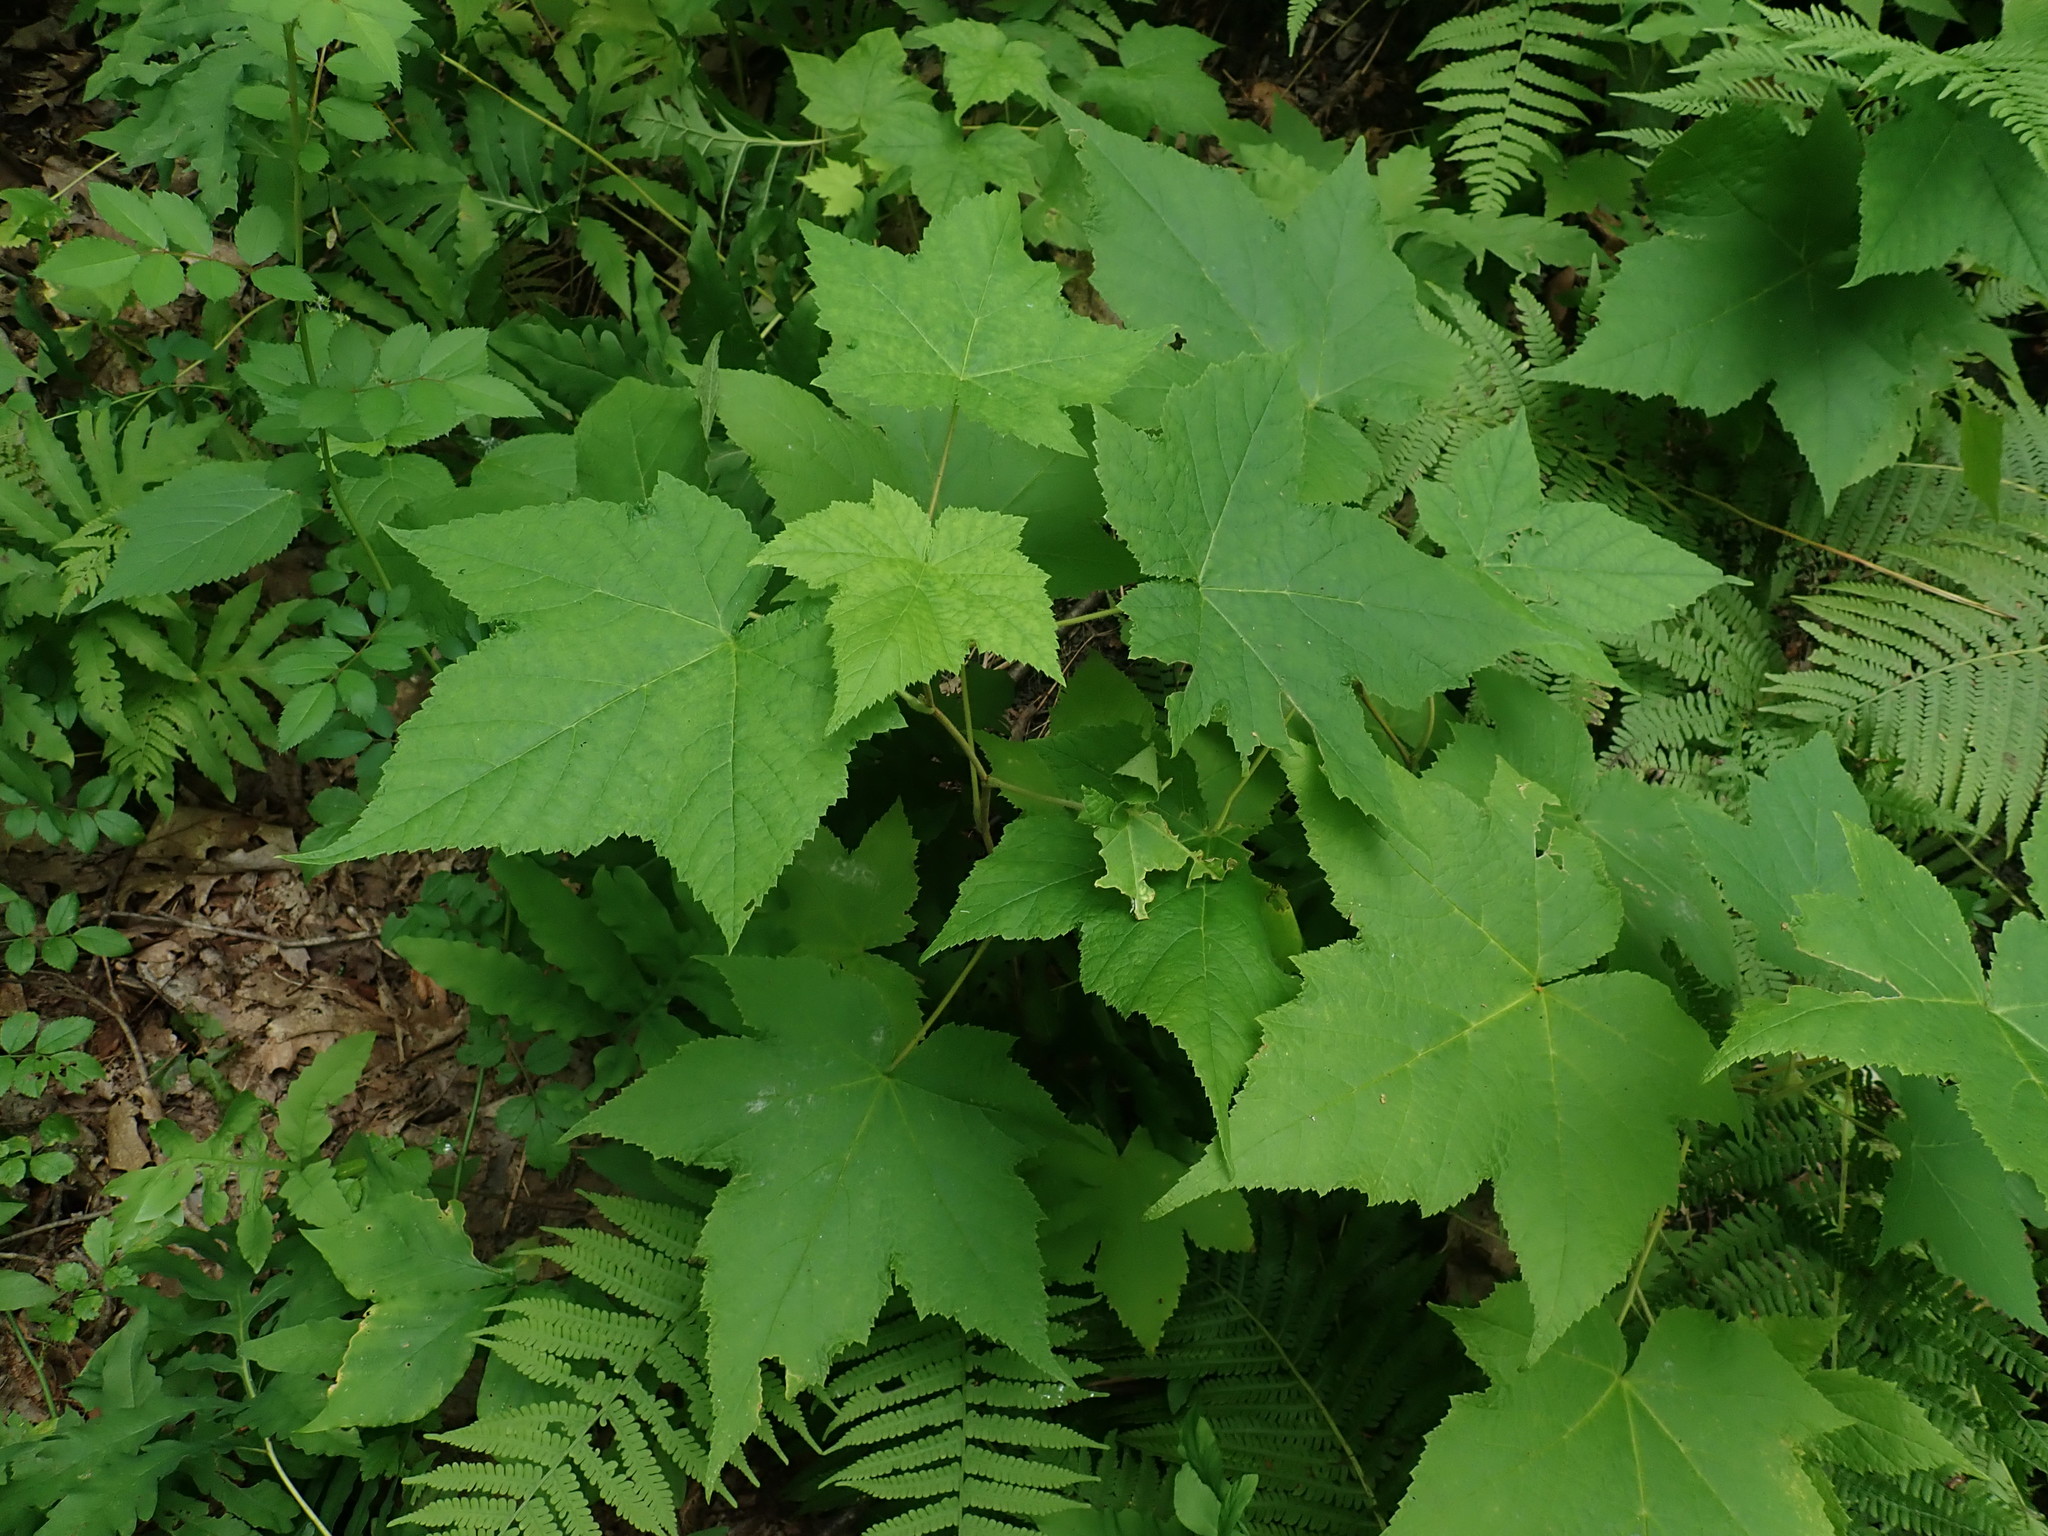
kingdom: Plantae
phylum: Tracheophyta
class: Magnoliopsida
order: Rosales
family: Rosaceae
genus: Rubus
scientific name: Rubus odoratus
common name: Purple-flowered raspberry
